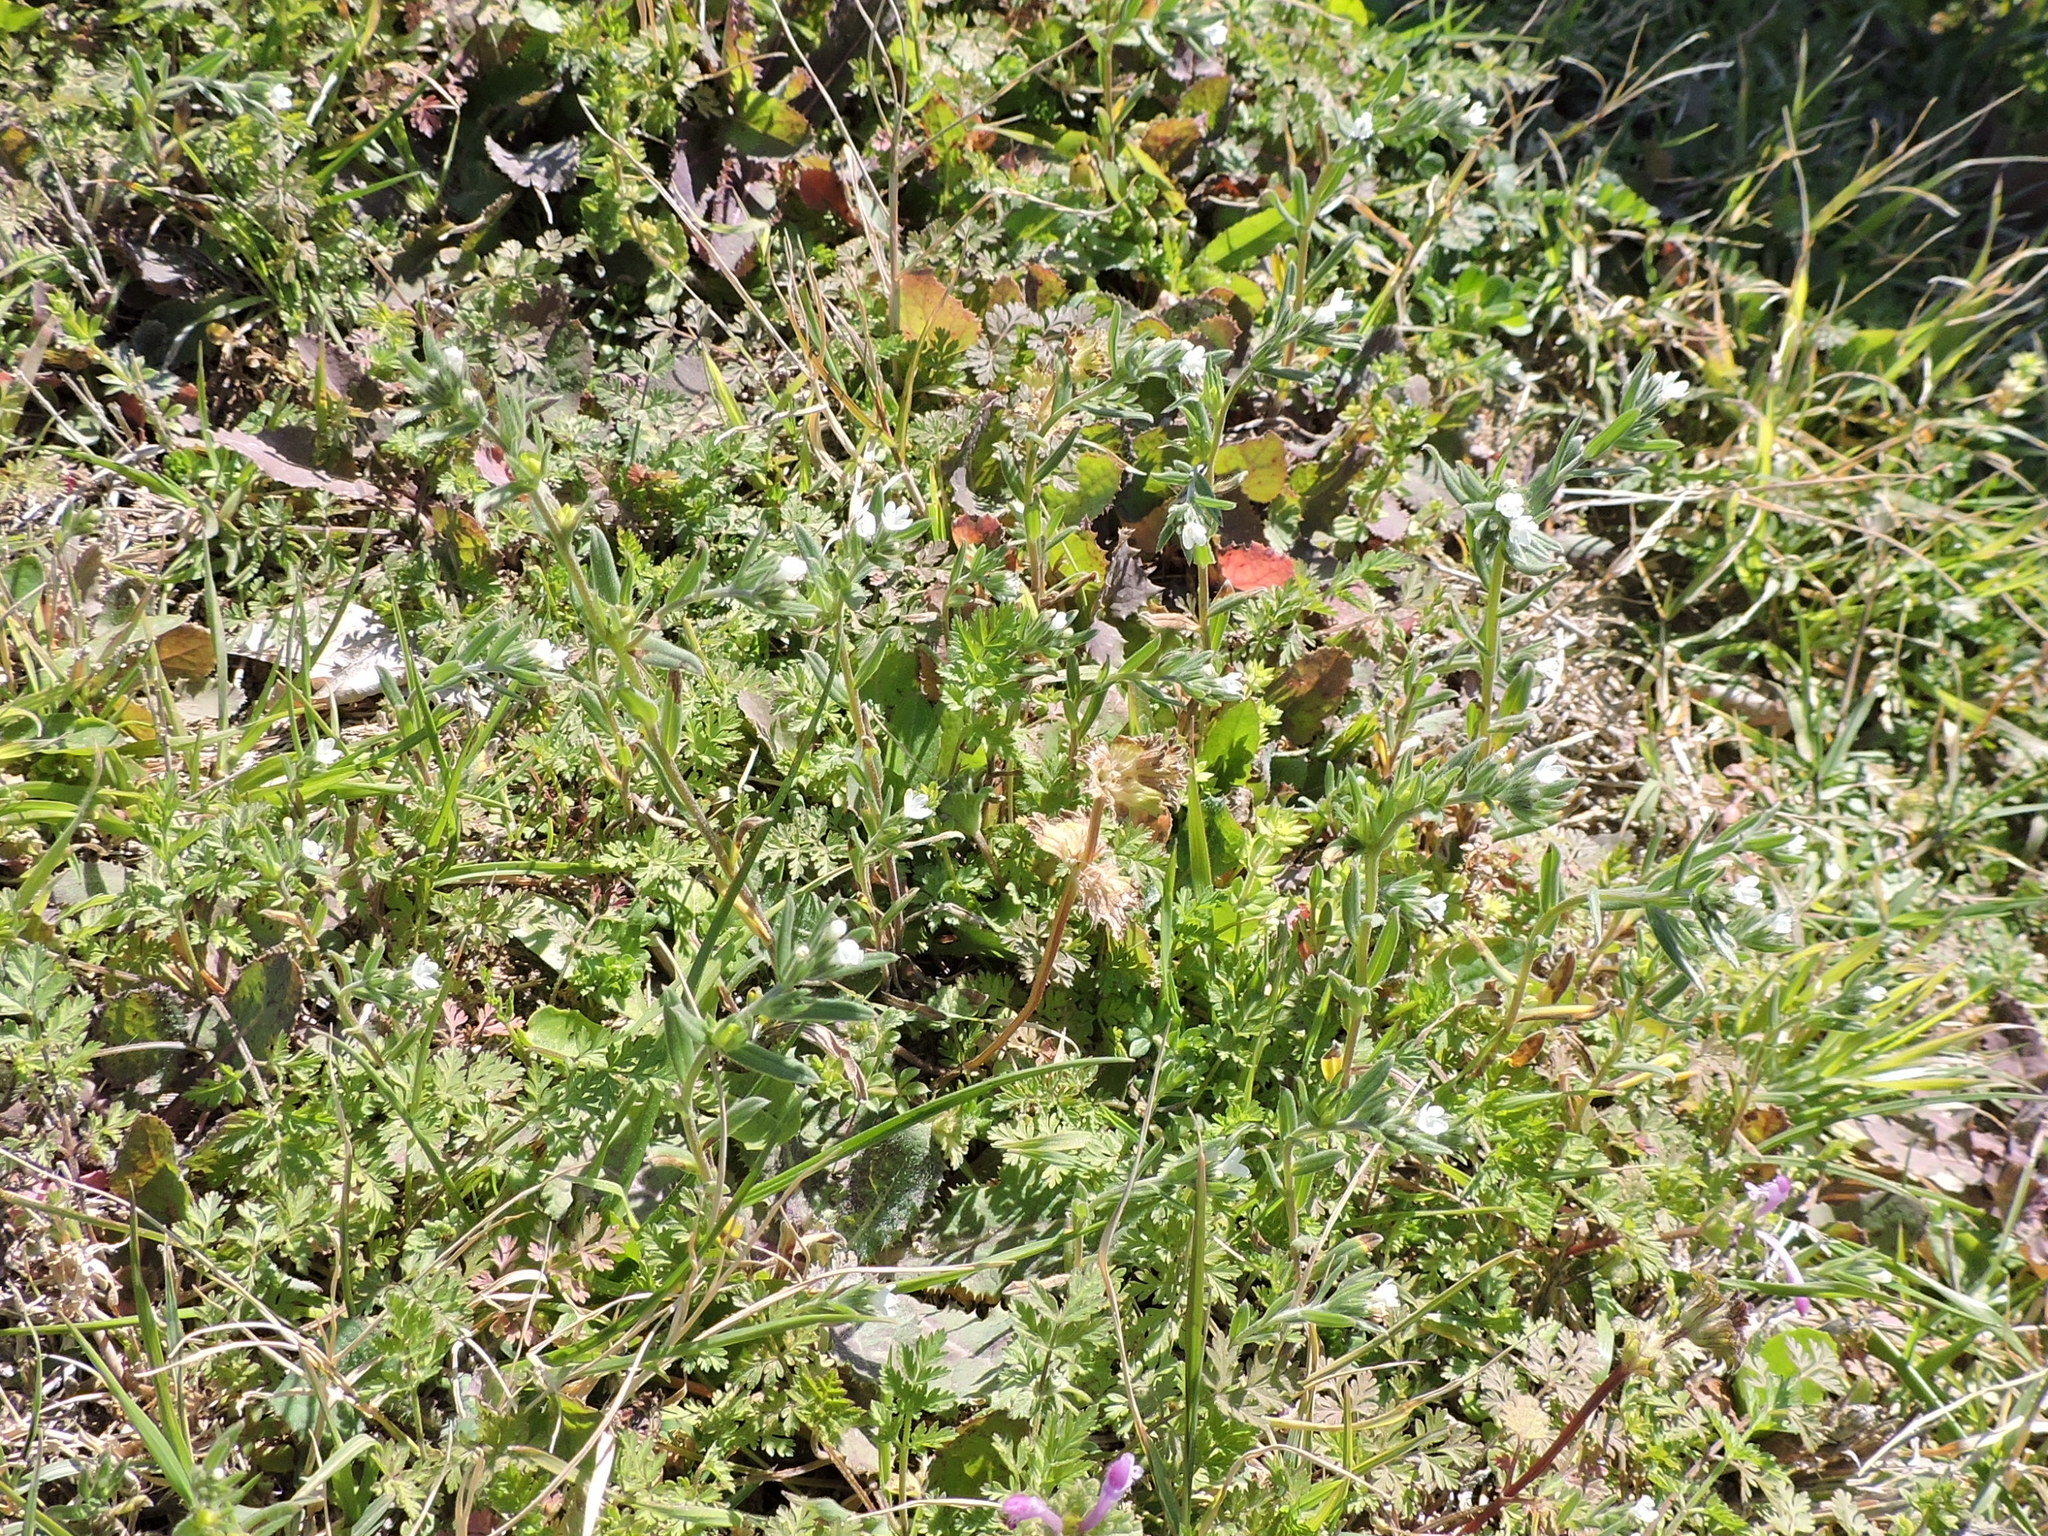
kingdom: Plantae
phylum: Tracheophyta
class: Magnoliopsida
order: Boraginales
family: Boraginaceae
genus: Buglossoides
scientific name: Buglossoides arvensis
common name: Corn gromwell
